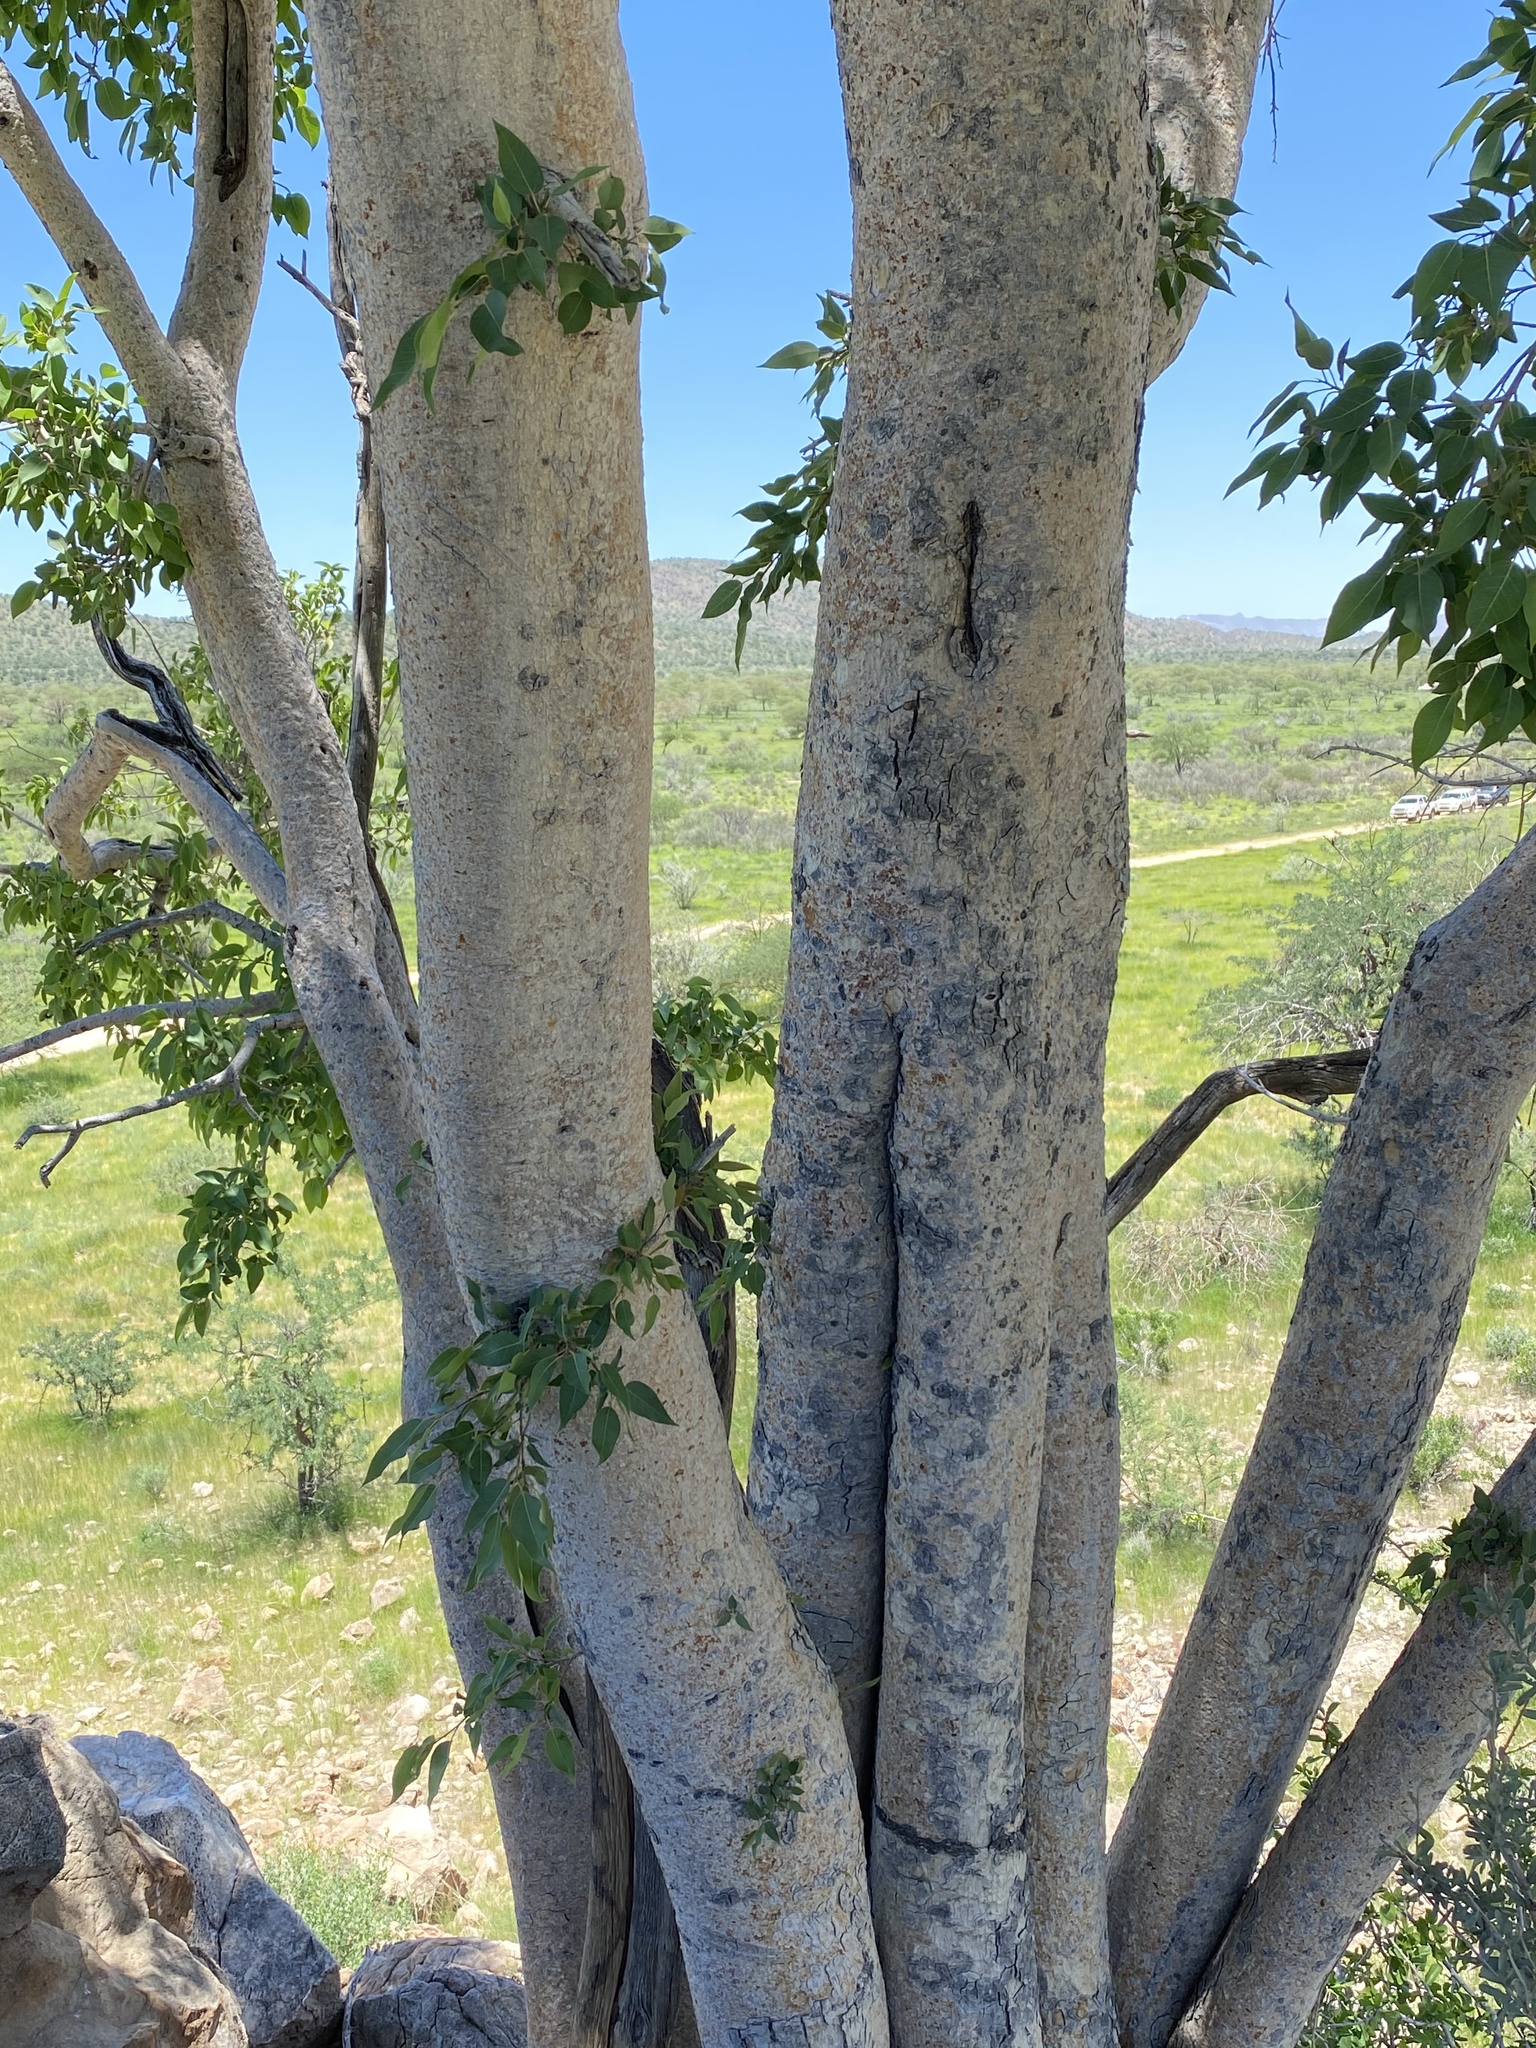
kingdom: Plantae
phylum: Tracheophyta
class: Magnoliopsida
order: Rosales
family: Moraceae
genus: Ficus
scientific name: Ficus cordata
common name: Namaqua rock fig
